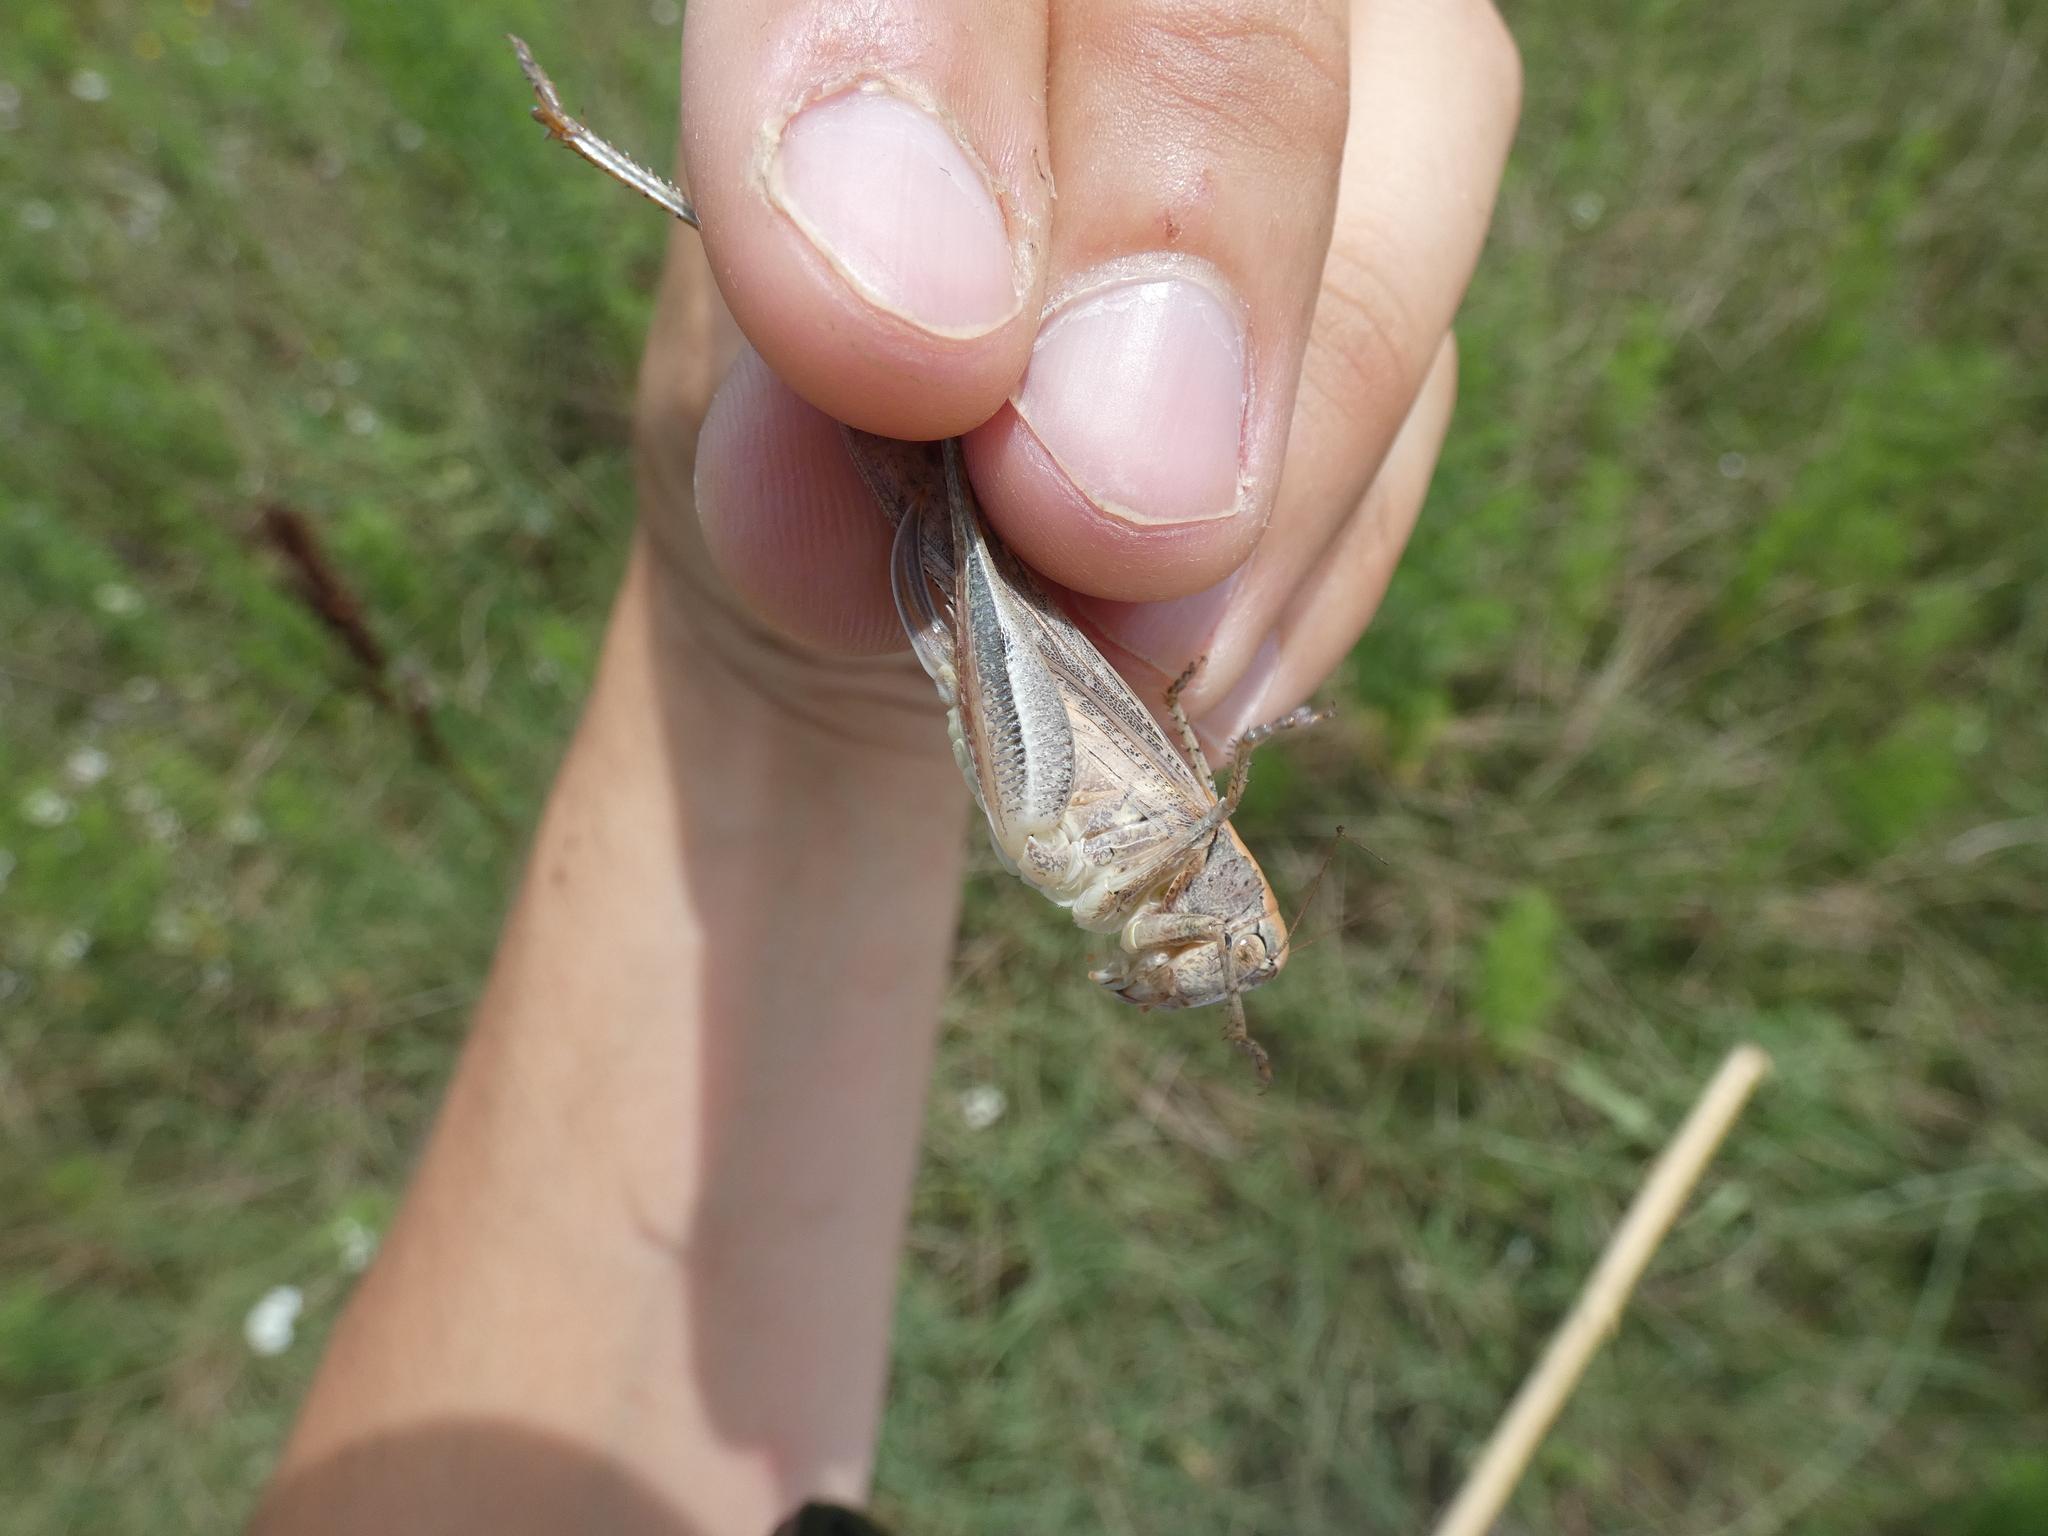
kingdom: Animalia
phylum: Arthropoda
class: Insecta
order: Orthoptera
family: Tettigoniidae
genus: Platycleis
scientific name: Platycleis intermedia
